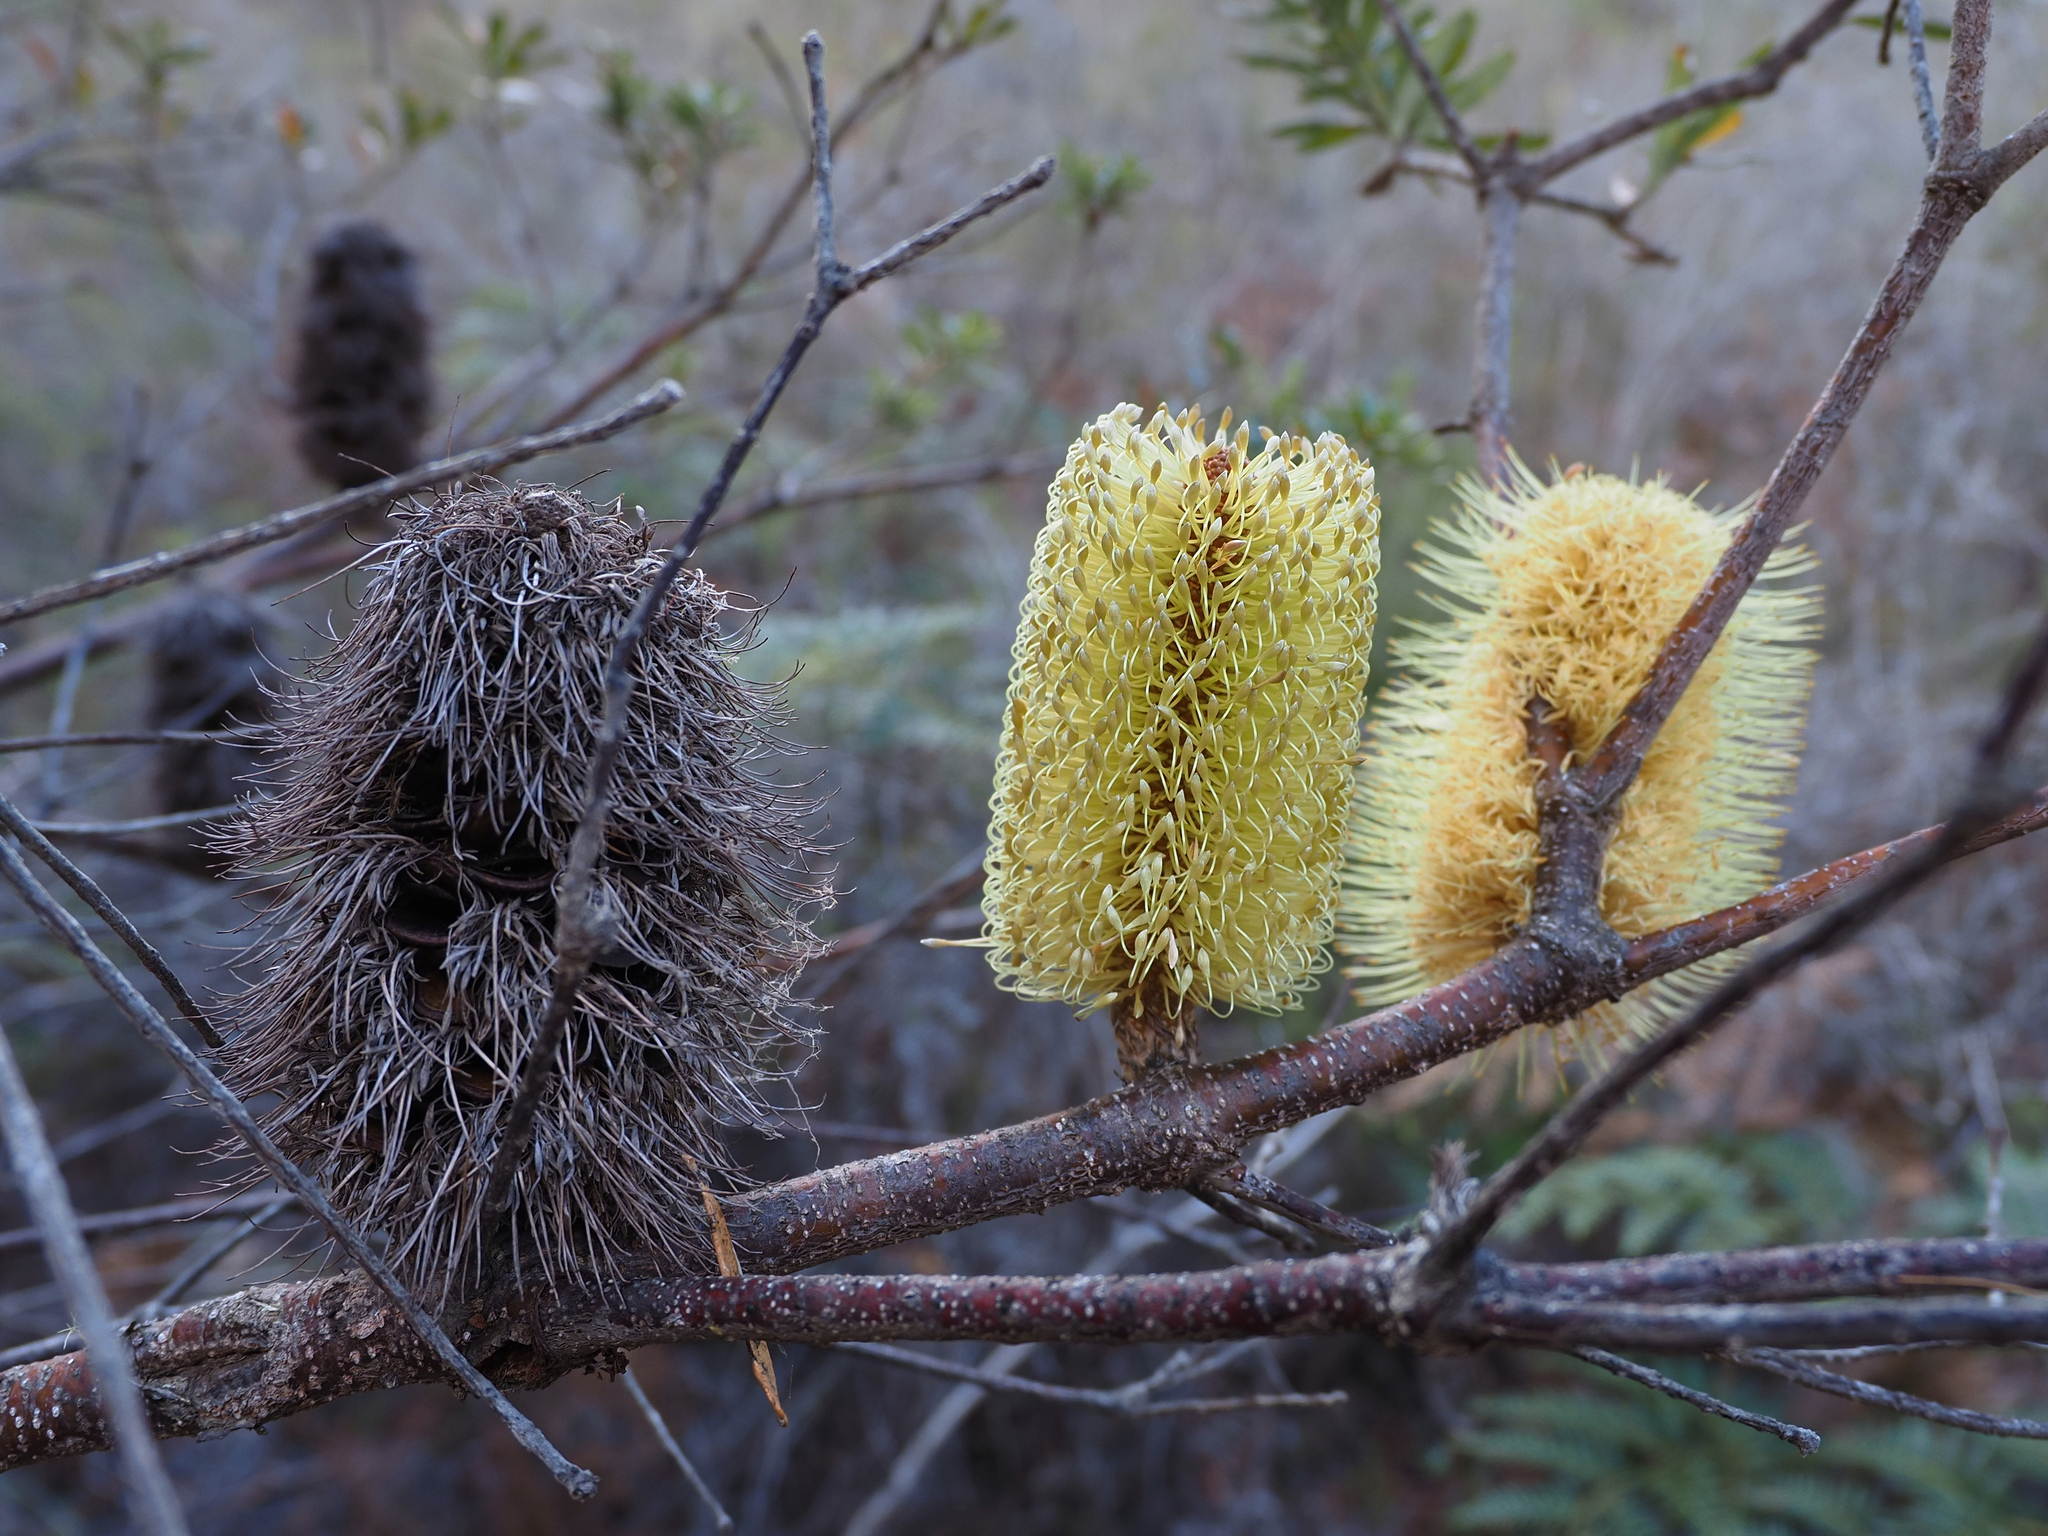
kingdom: Plantae
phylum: Tracheophyta
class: Magnoliopsida
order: Proteales
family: Proteaceae
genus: Banksia
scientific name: Banksia marginata
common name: Silver banksia
